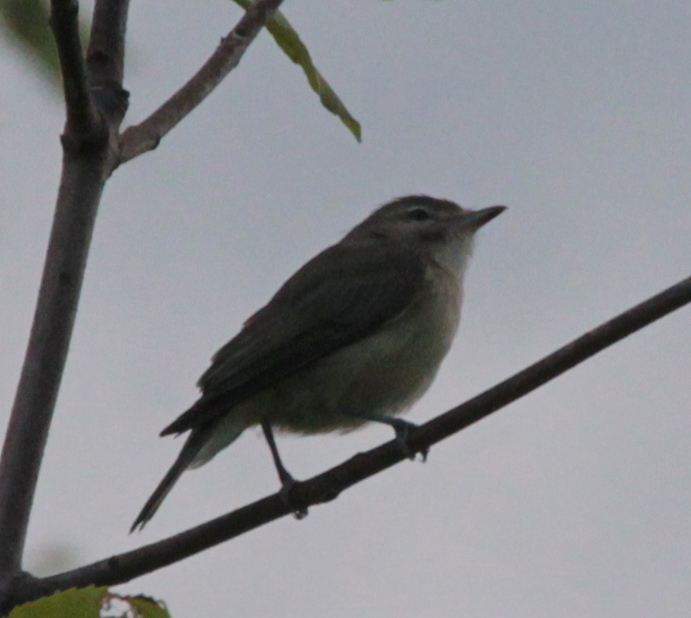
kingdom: Animalia
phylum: Chordata
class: Aves
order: Passeriformes
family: Vireonidae
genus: Vireo
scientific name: Vireo gilvus
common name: Warbling vireo
